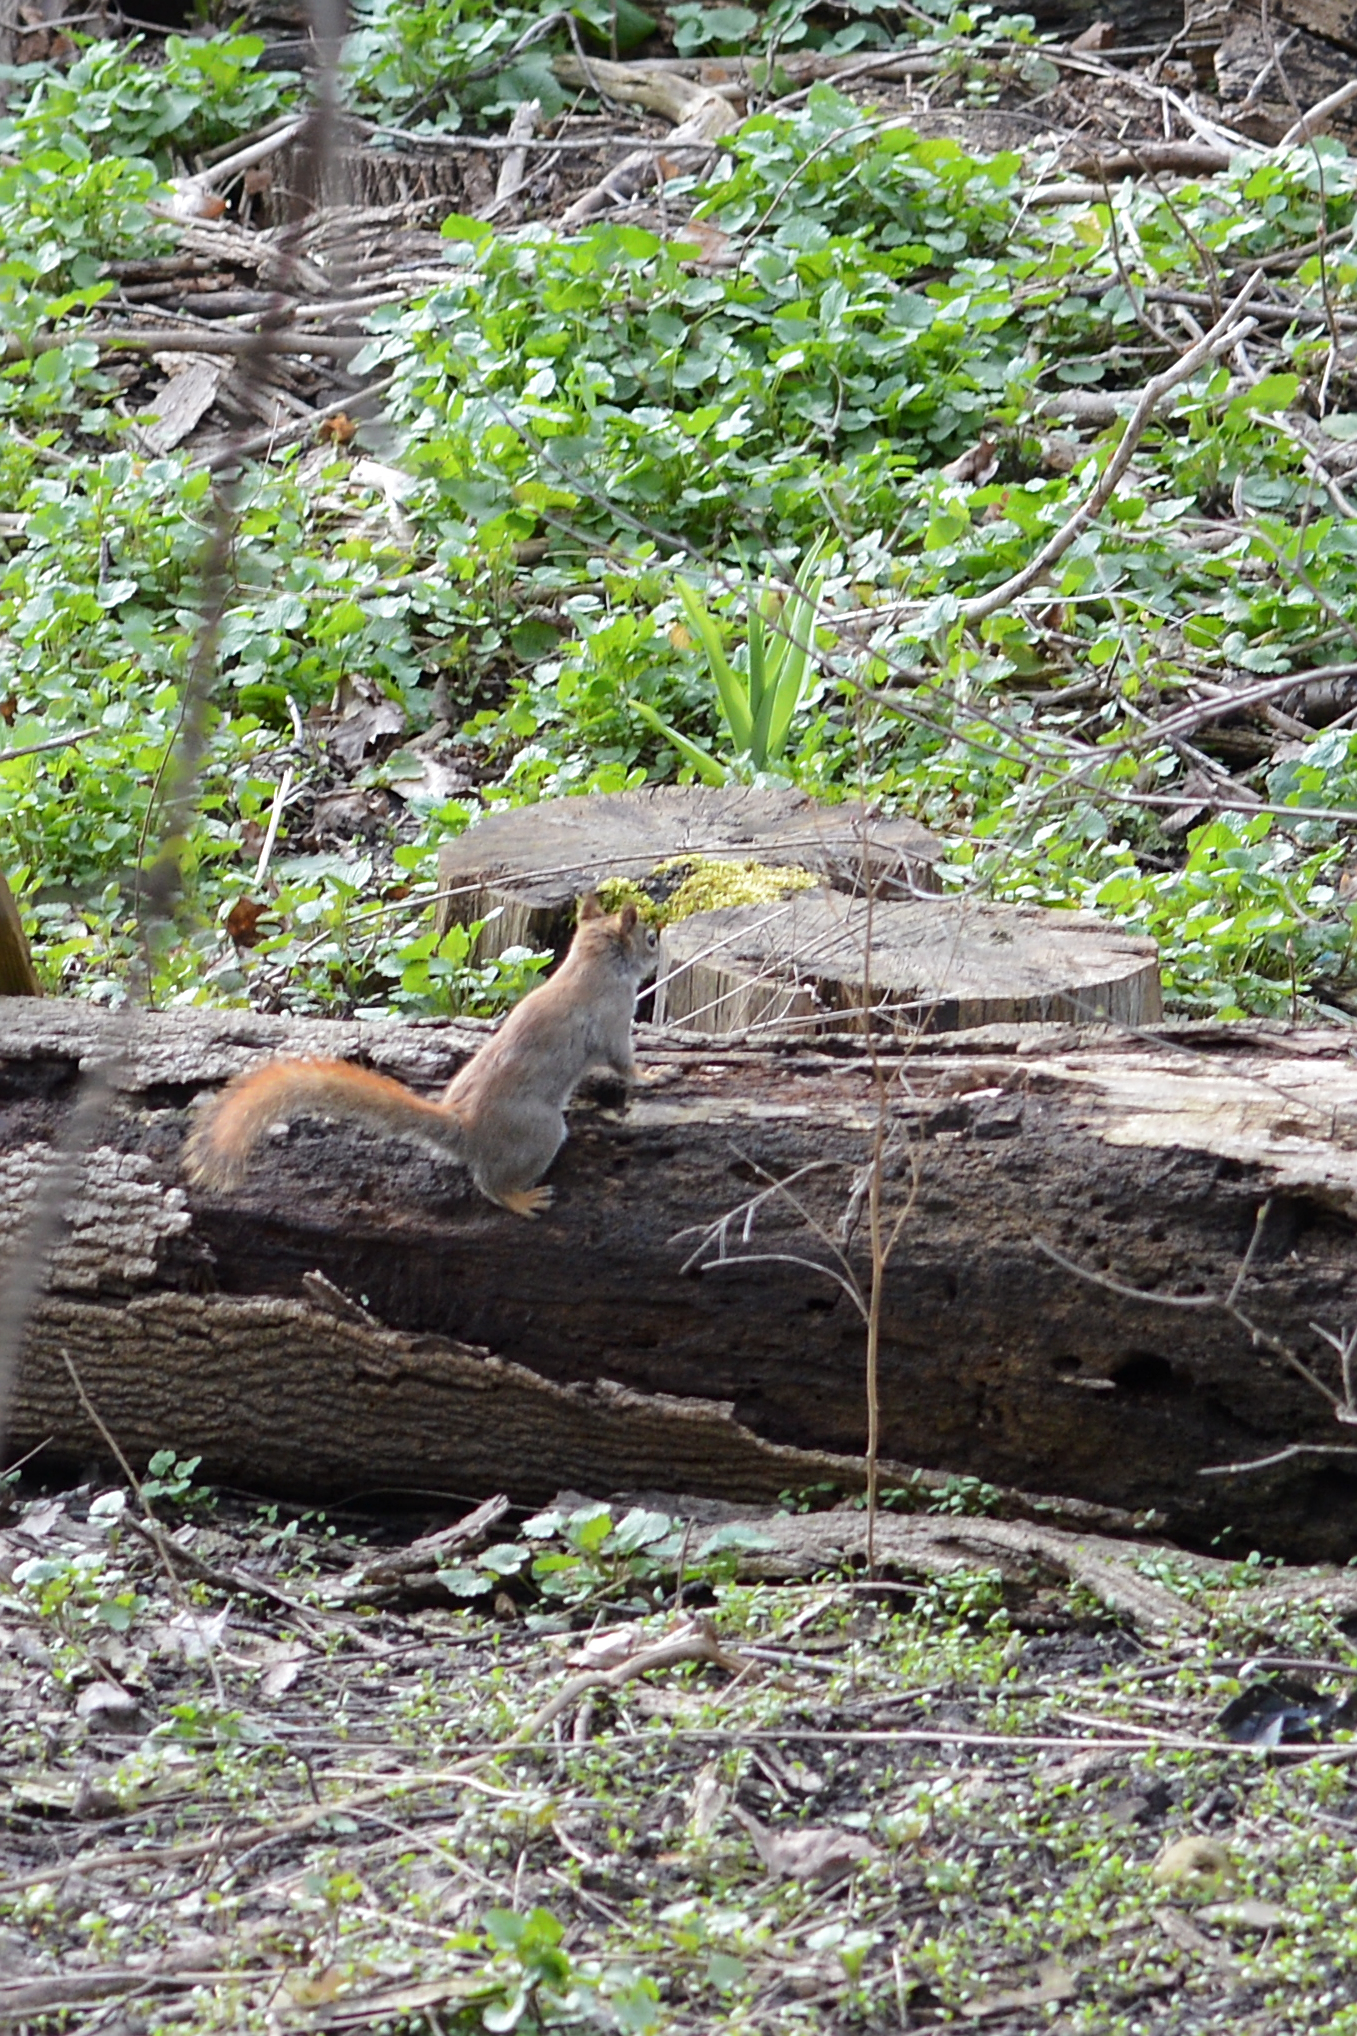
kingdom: Animalia
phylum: Chordata
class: Mammalia
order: Rodentia
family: Sciuridae
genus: Tamiasciurus
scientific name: Tamiasciurus hudsonicus
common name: Red squirrel
